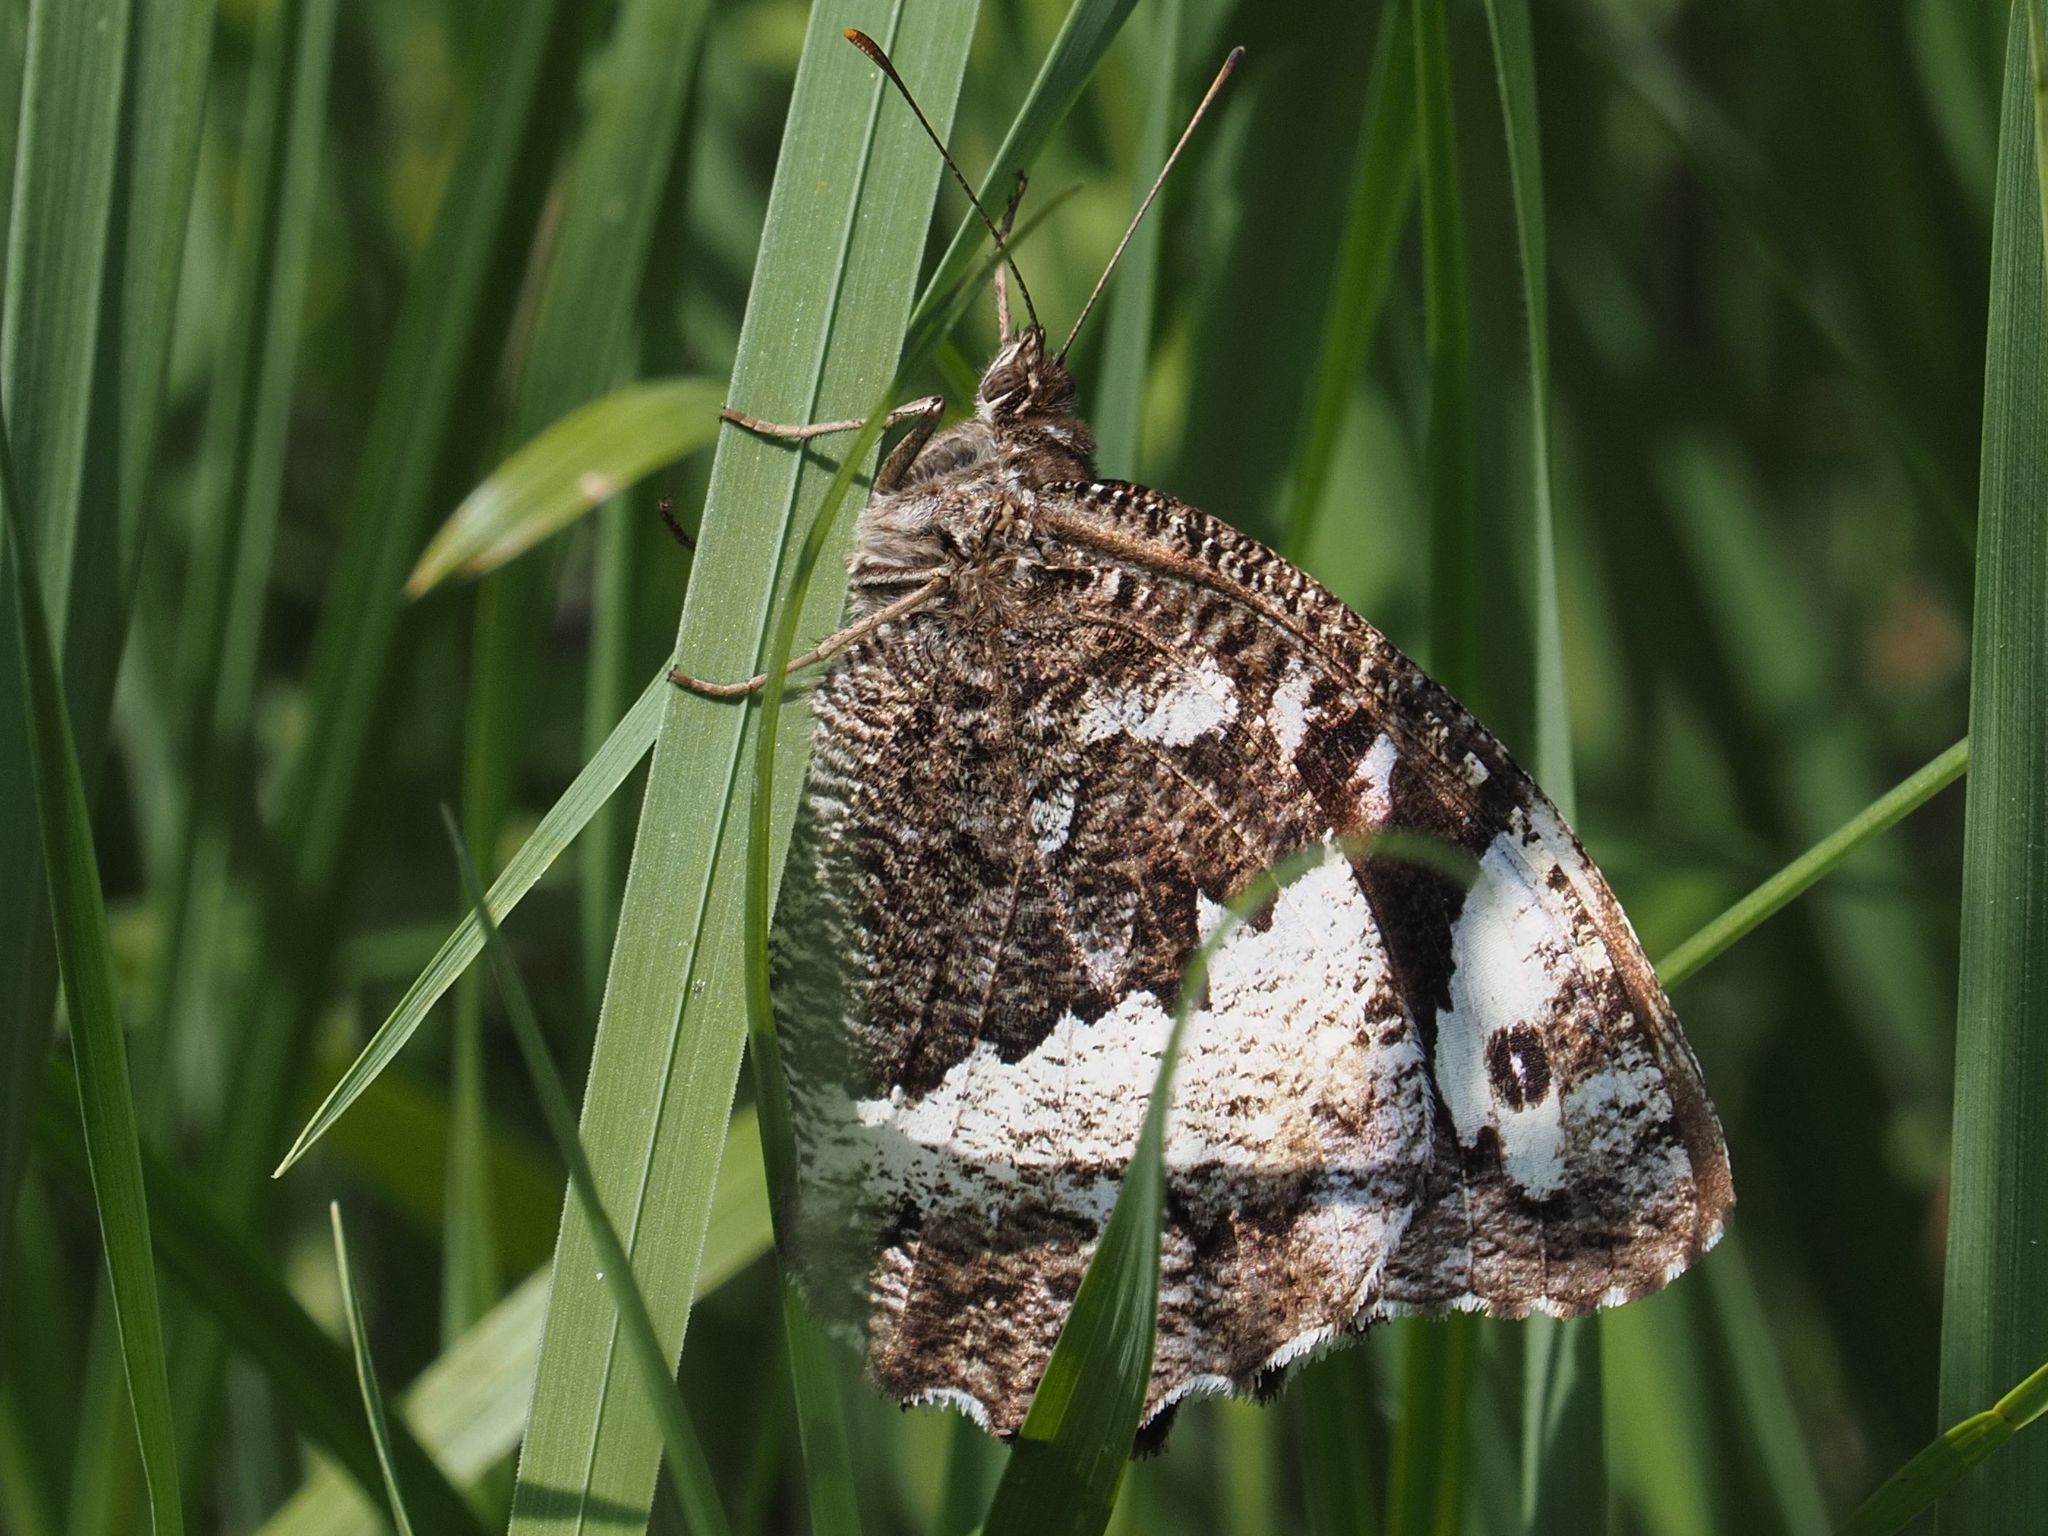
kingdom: Animalia
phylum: Arthropoda
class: Insecta
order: Lepidoptera
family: Lycaenidae
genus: Loweia
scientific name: Loweia tityrus
